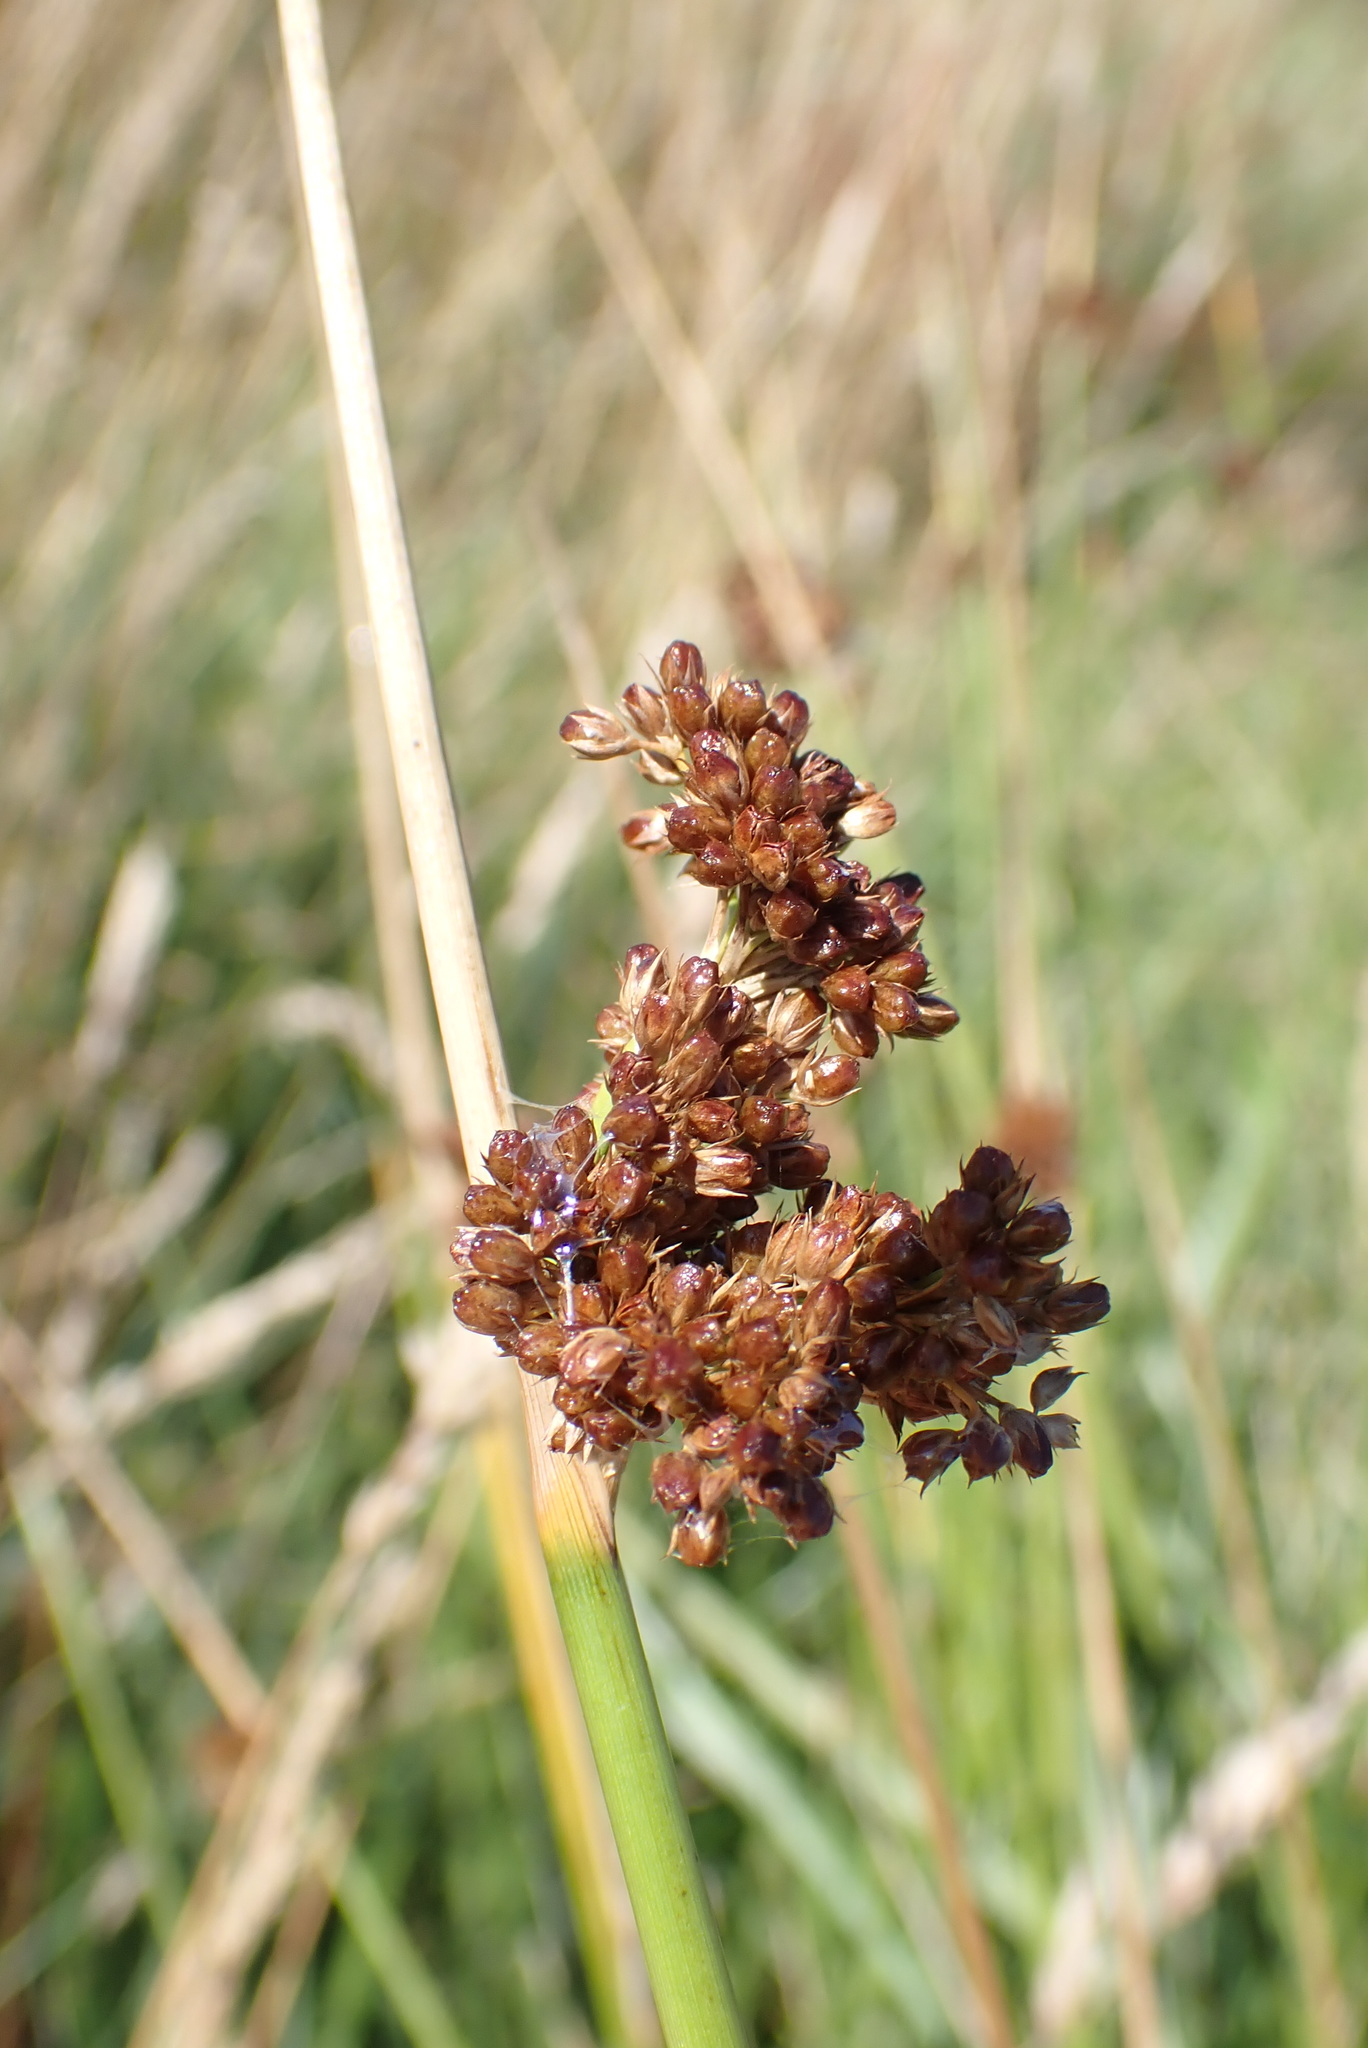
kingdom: Plantae
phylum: Tracheophyta
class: Liliopsida
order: Poales
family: Juncaceae
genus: Juncus
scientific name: Juncus effusus
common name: Soft rush
